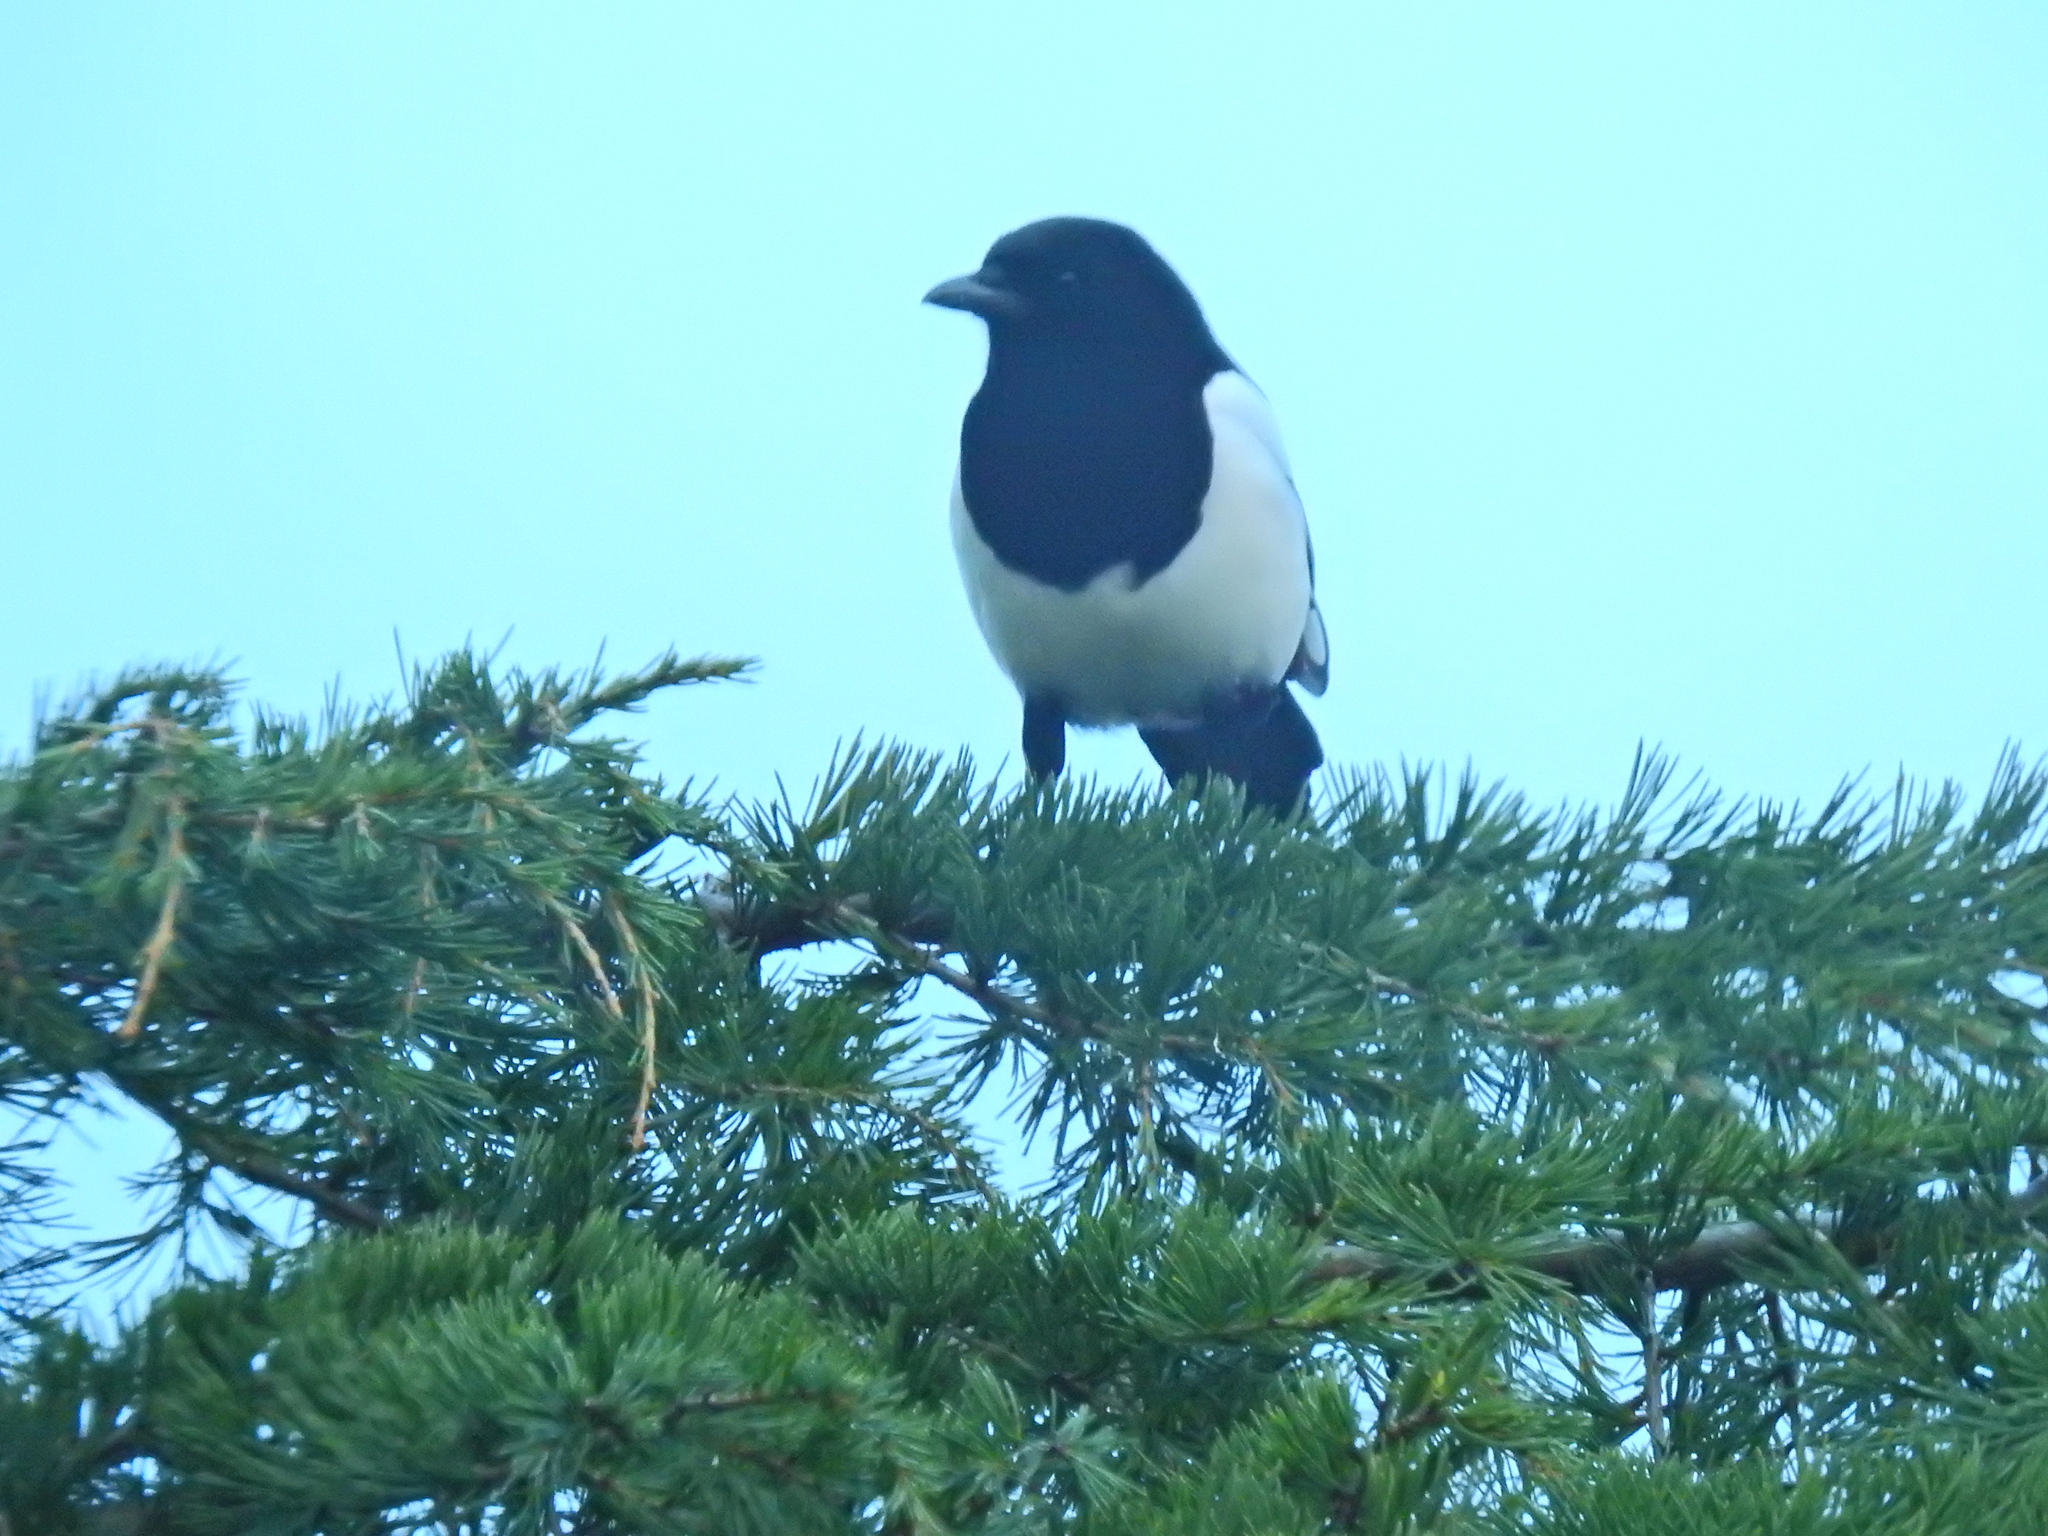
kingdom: Animalia
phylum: Chordata
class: Aves
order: Passeriformes
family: Corvidae
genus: Pica
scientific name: Pica pica
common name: Eurasian magpie
